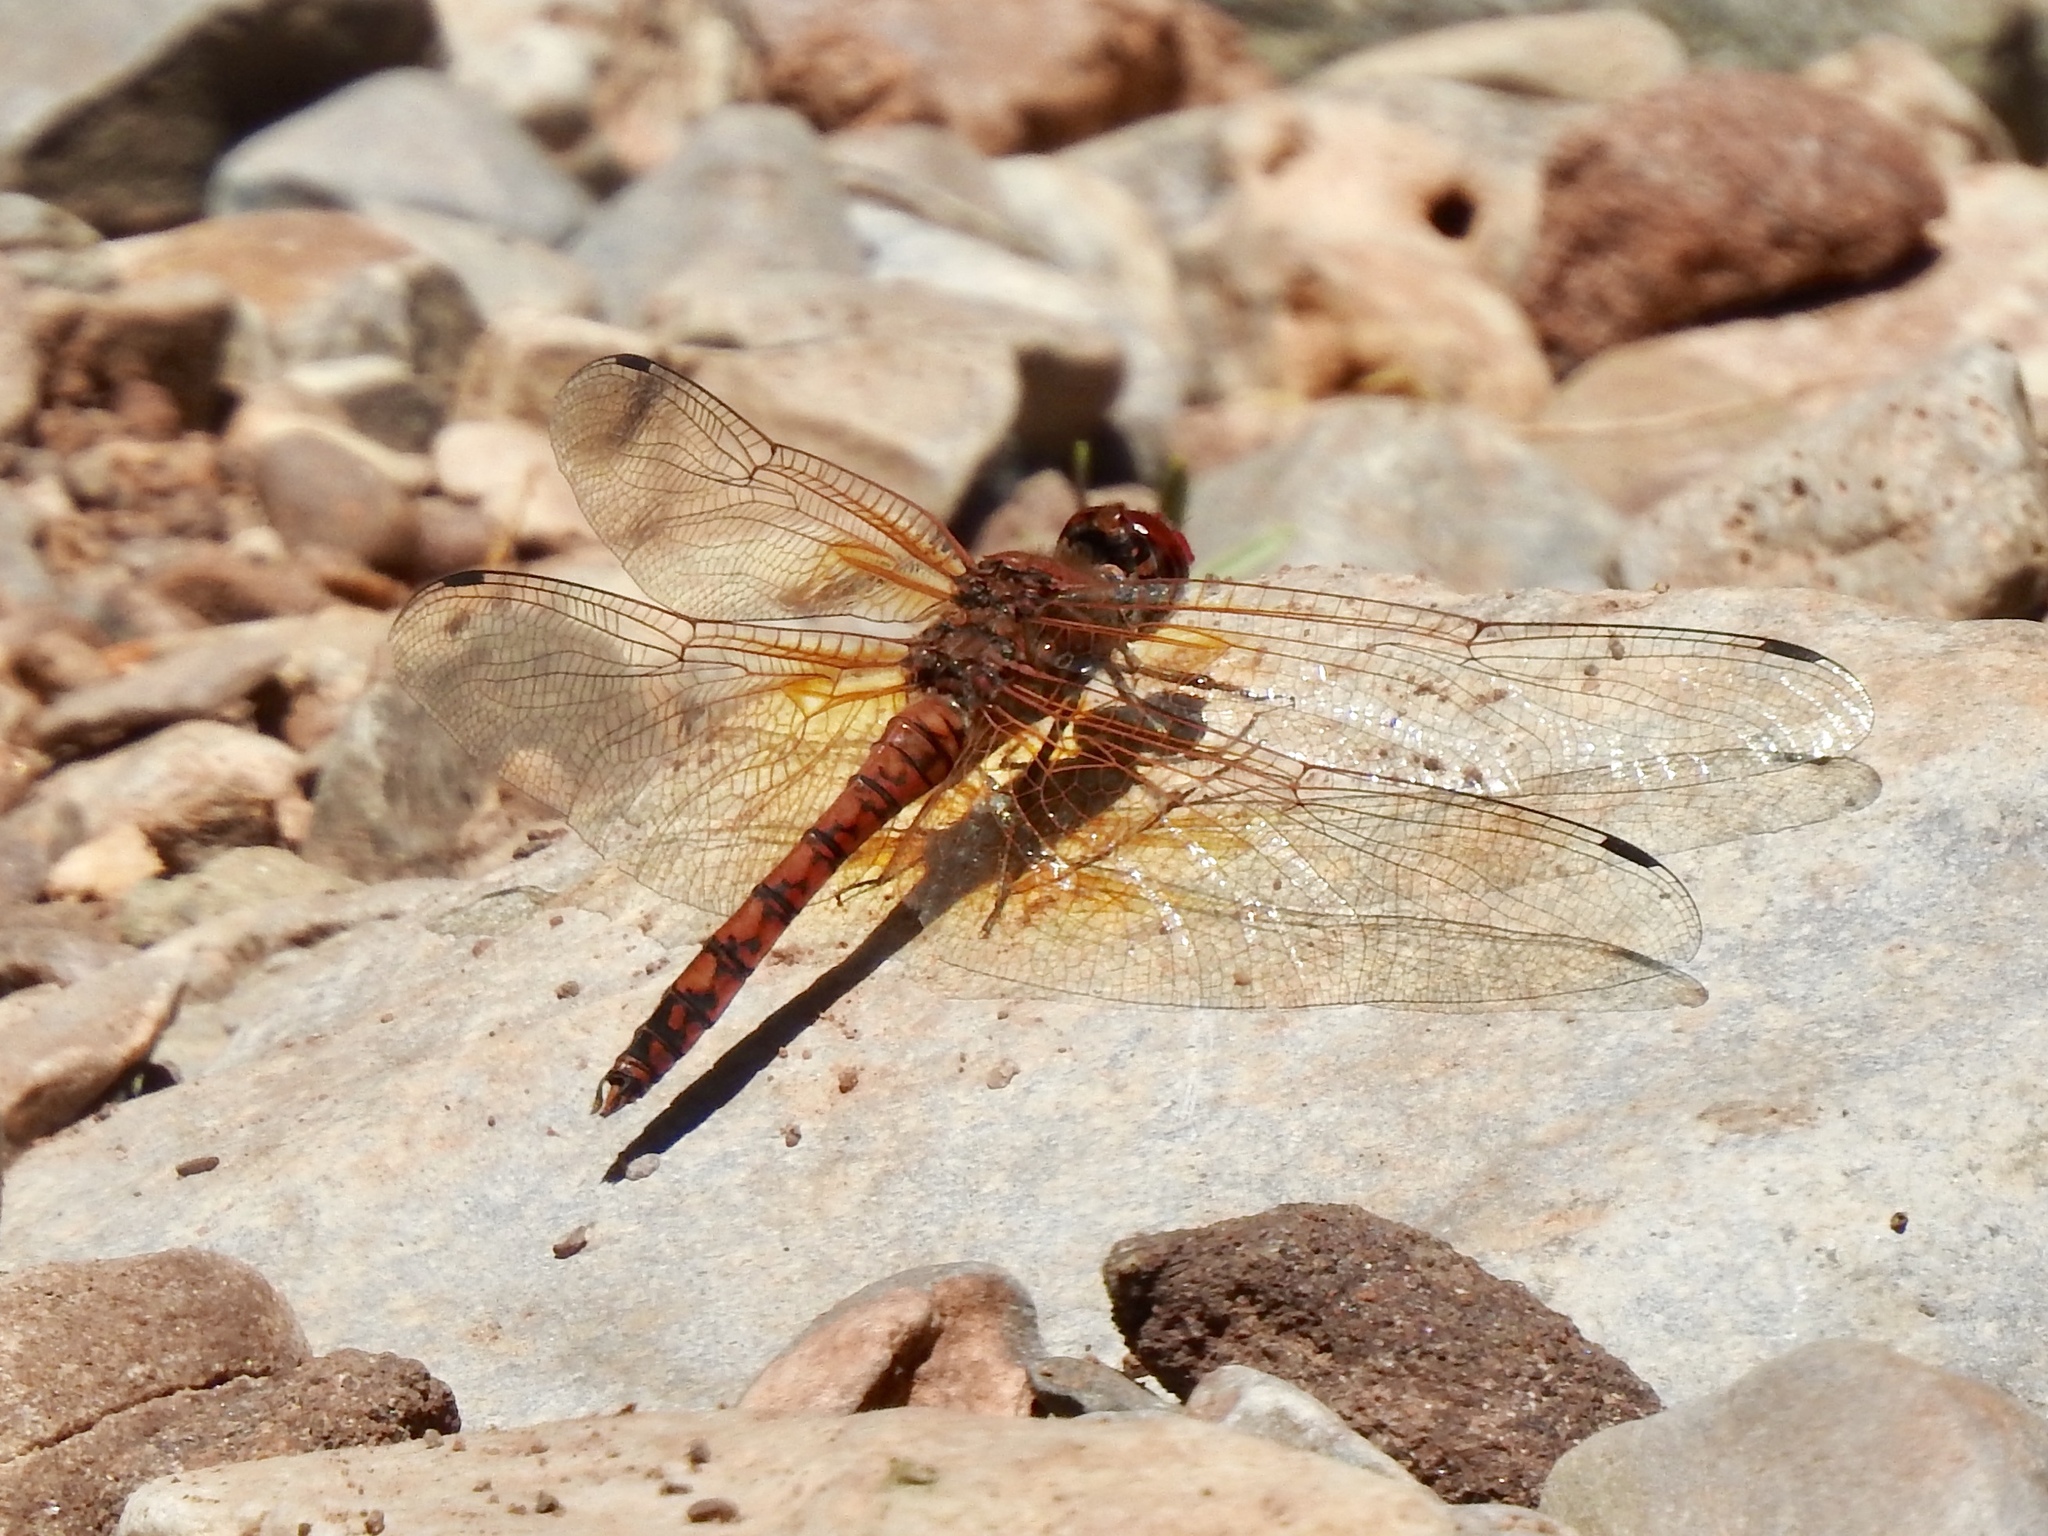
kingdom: Animalia
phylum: Arthropoda
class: Insecta
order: Odonata
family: Libellulidae
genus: Paltothemis
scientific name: Paltothemis lineatipes
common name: Red rock skimmer
